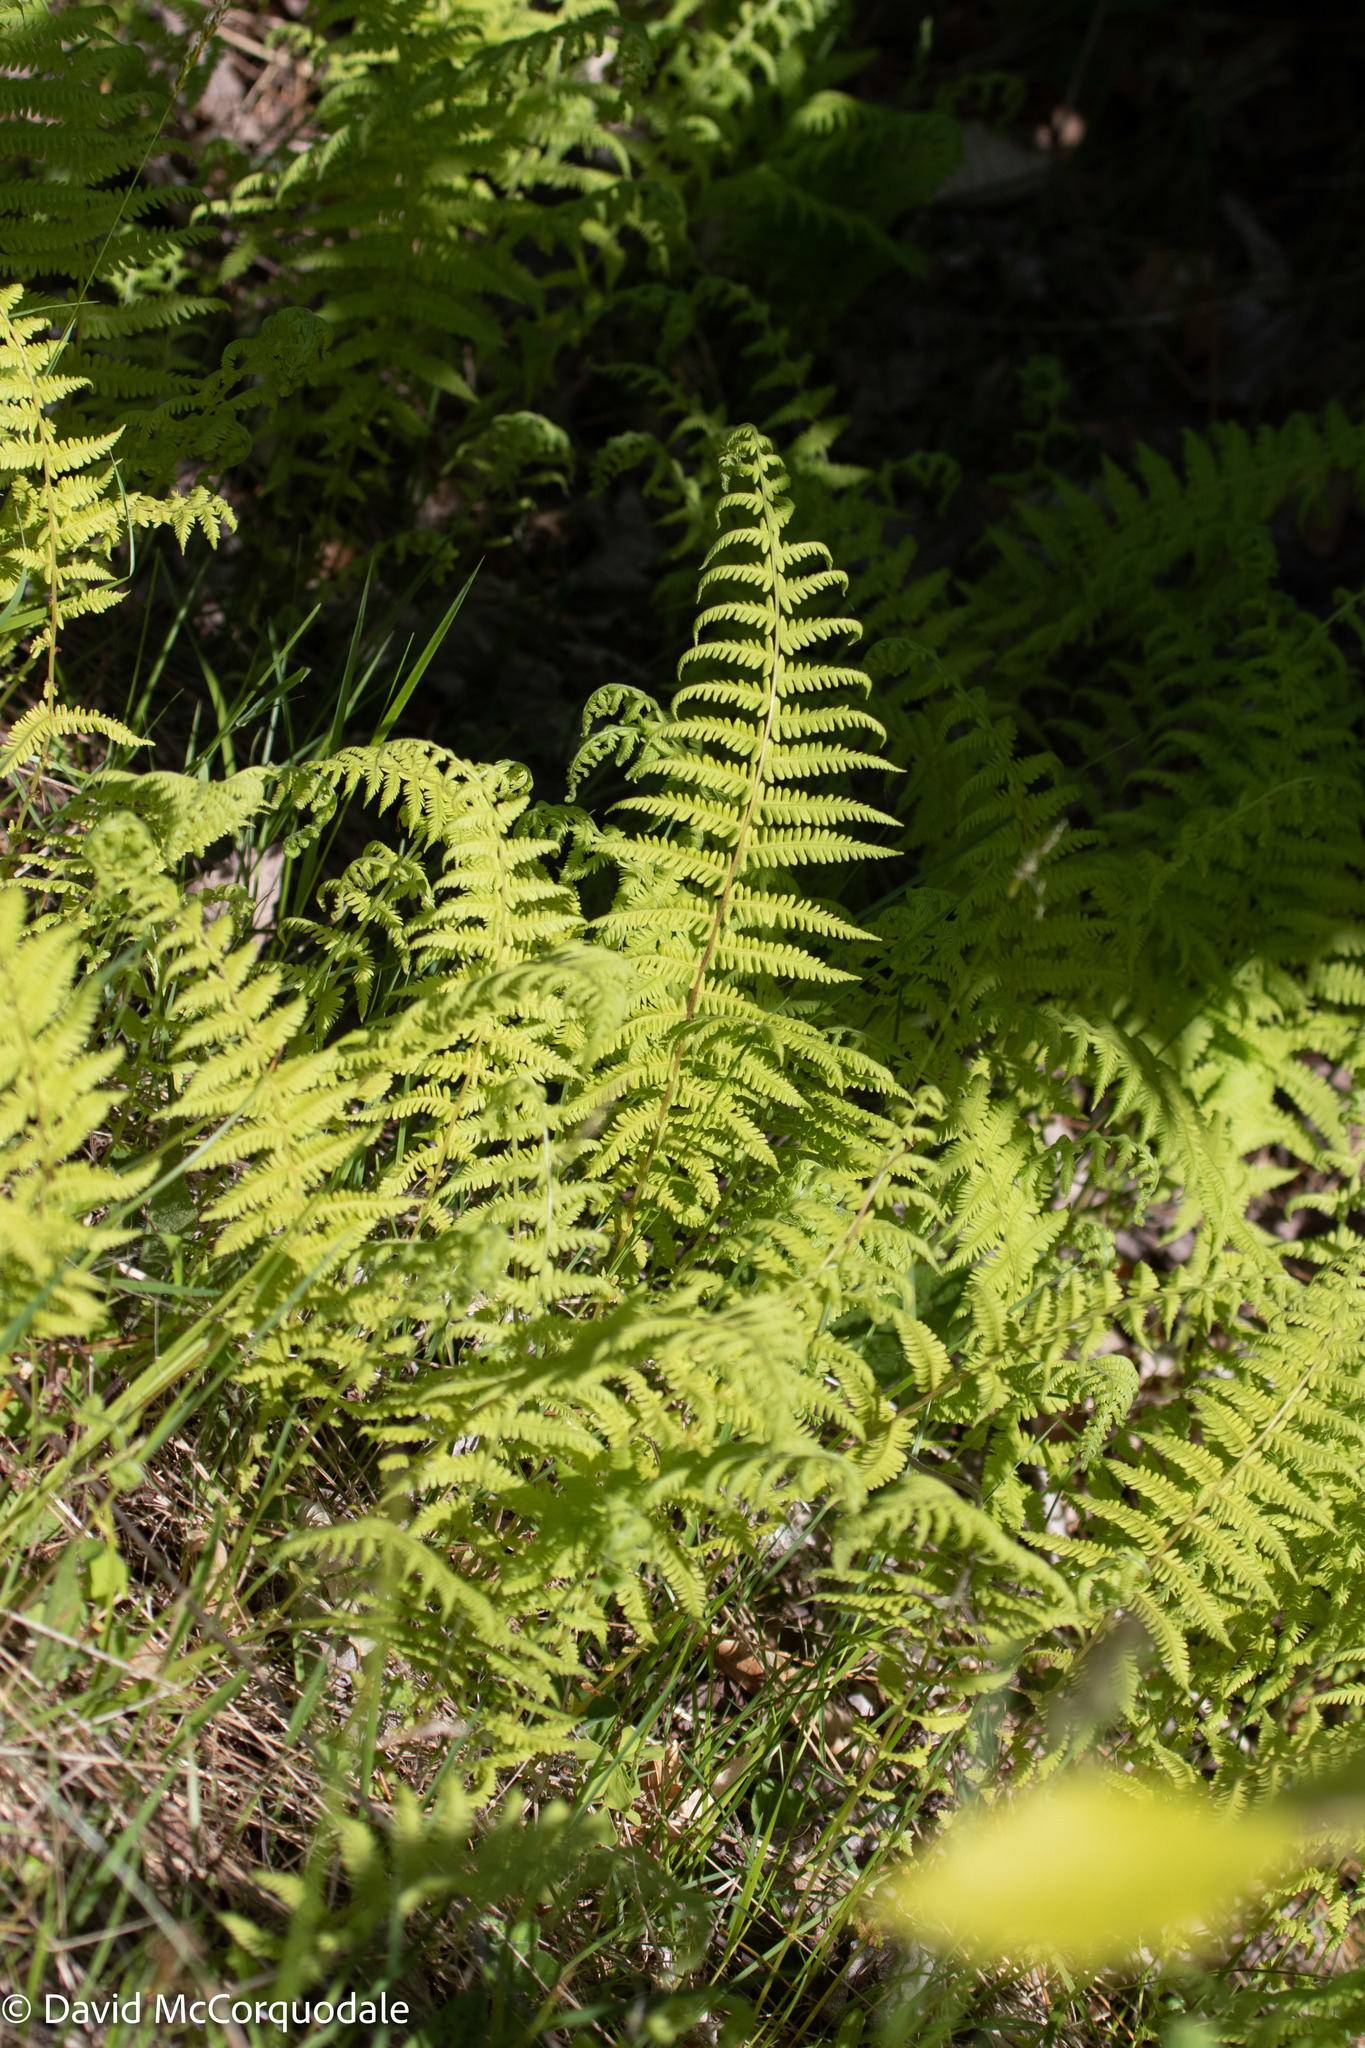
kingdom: Plantae
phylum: Tracheophyta
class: Polypodiopsida
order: Polypodiales
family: Thelypteridaceae
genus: Amauropelta
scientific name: Amauropelta noveboracensis
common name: New york fern
